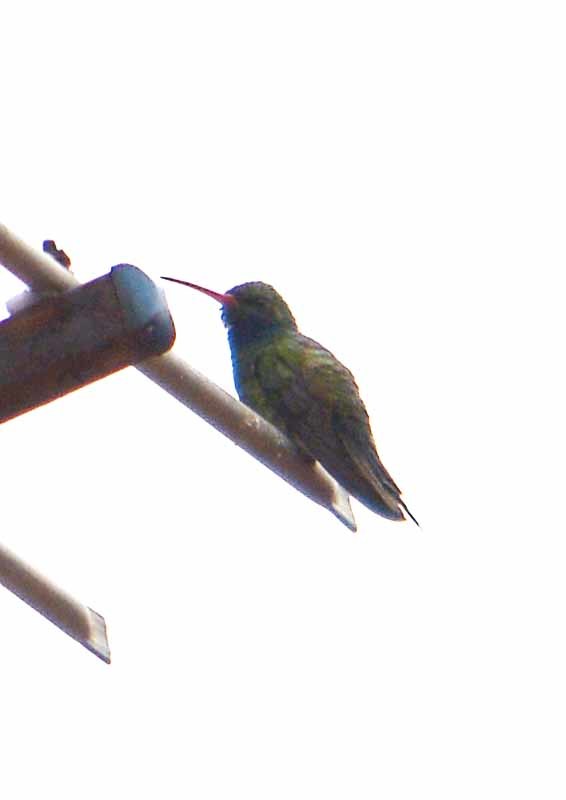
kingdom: Animalia
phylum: Chordata
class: Aves
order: Apodiformes
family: Trochilidae
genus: Cynanthus
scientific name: Cynanthus latirostris
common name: Broad-billed hummingbird
